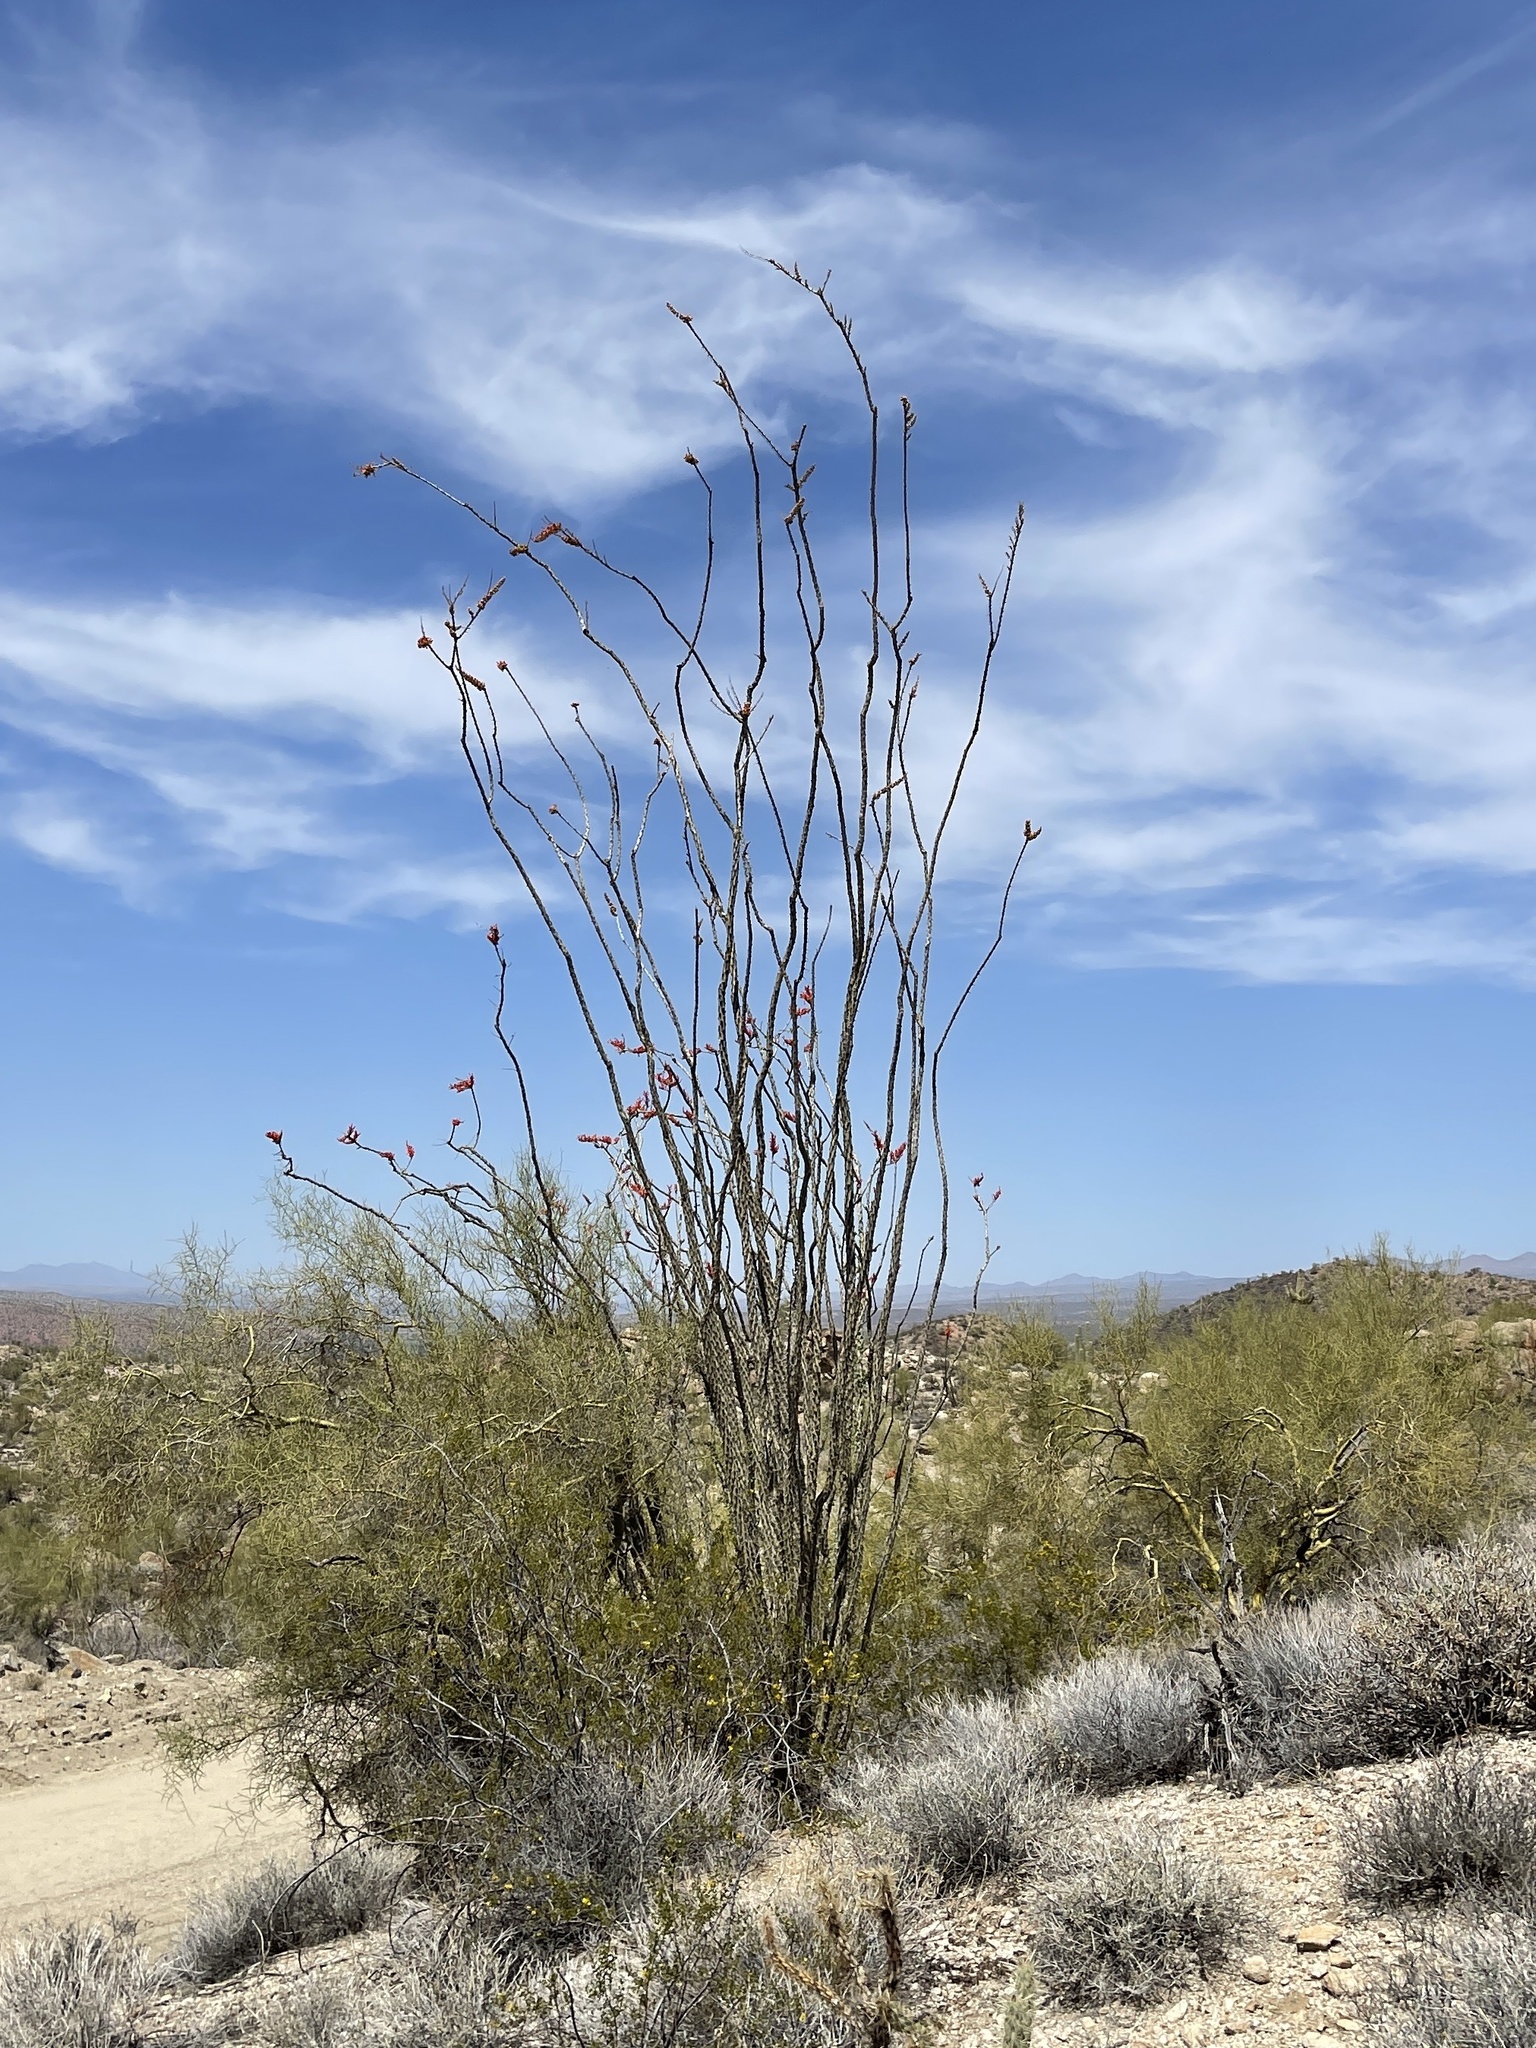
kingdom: Plantae
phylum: Tracheophyta
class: Magnoliopsida
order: Ericales
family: Fouquieriaceae
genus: Fouquieria
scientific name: Fouquieria splendens
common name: Vine-cactus
